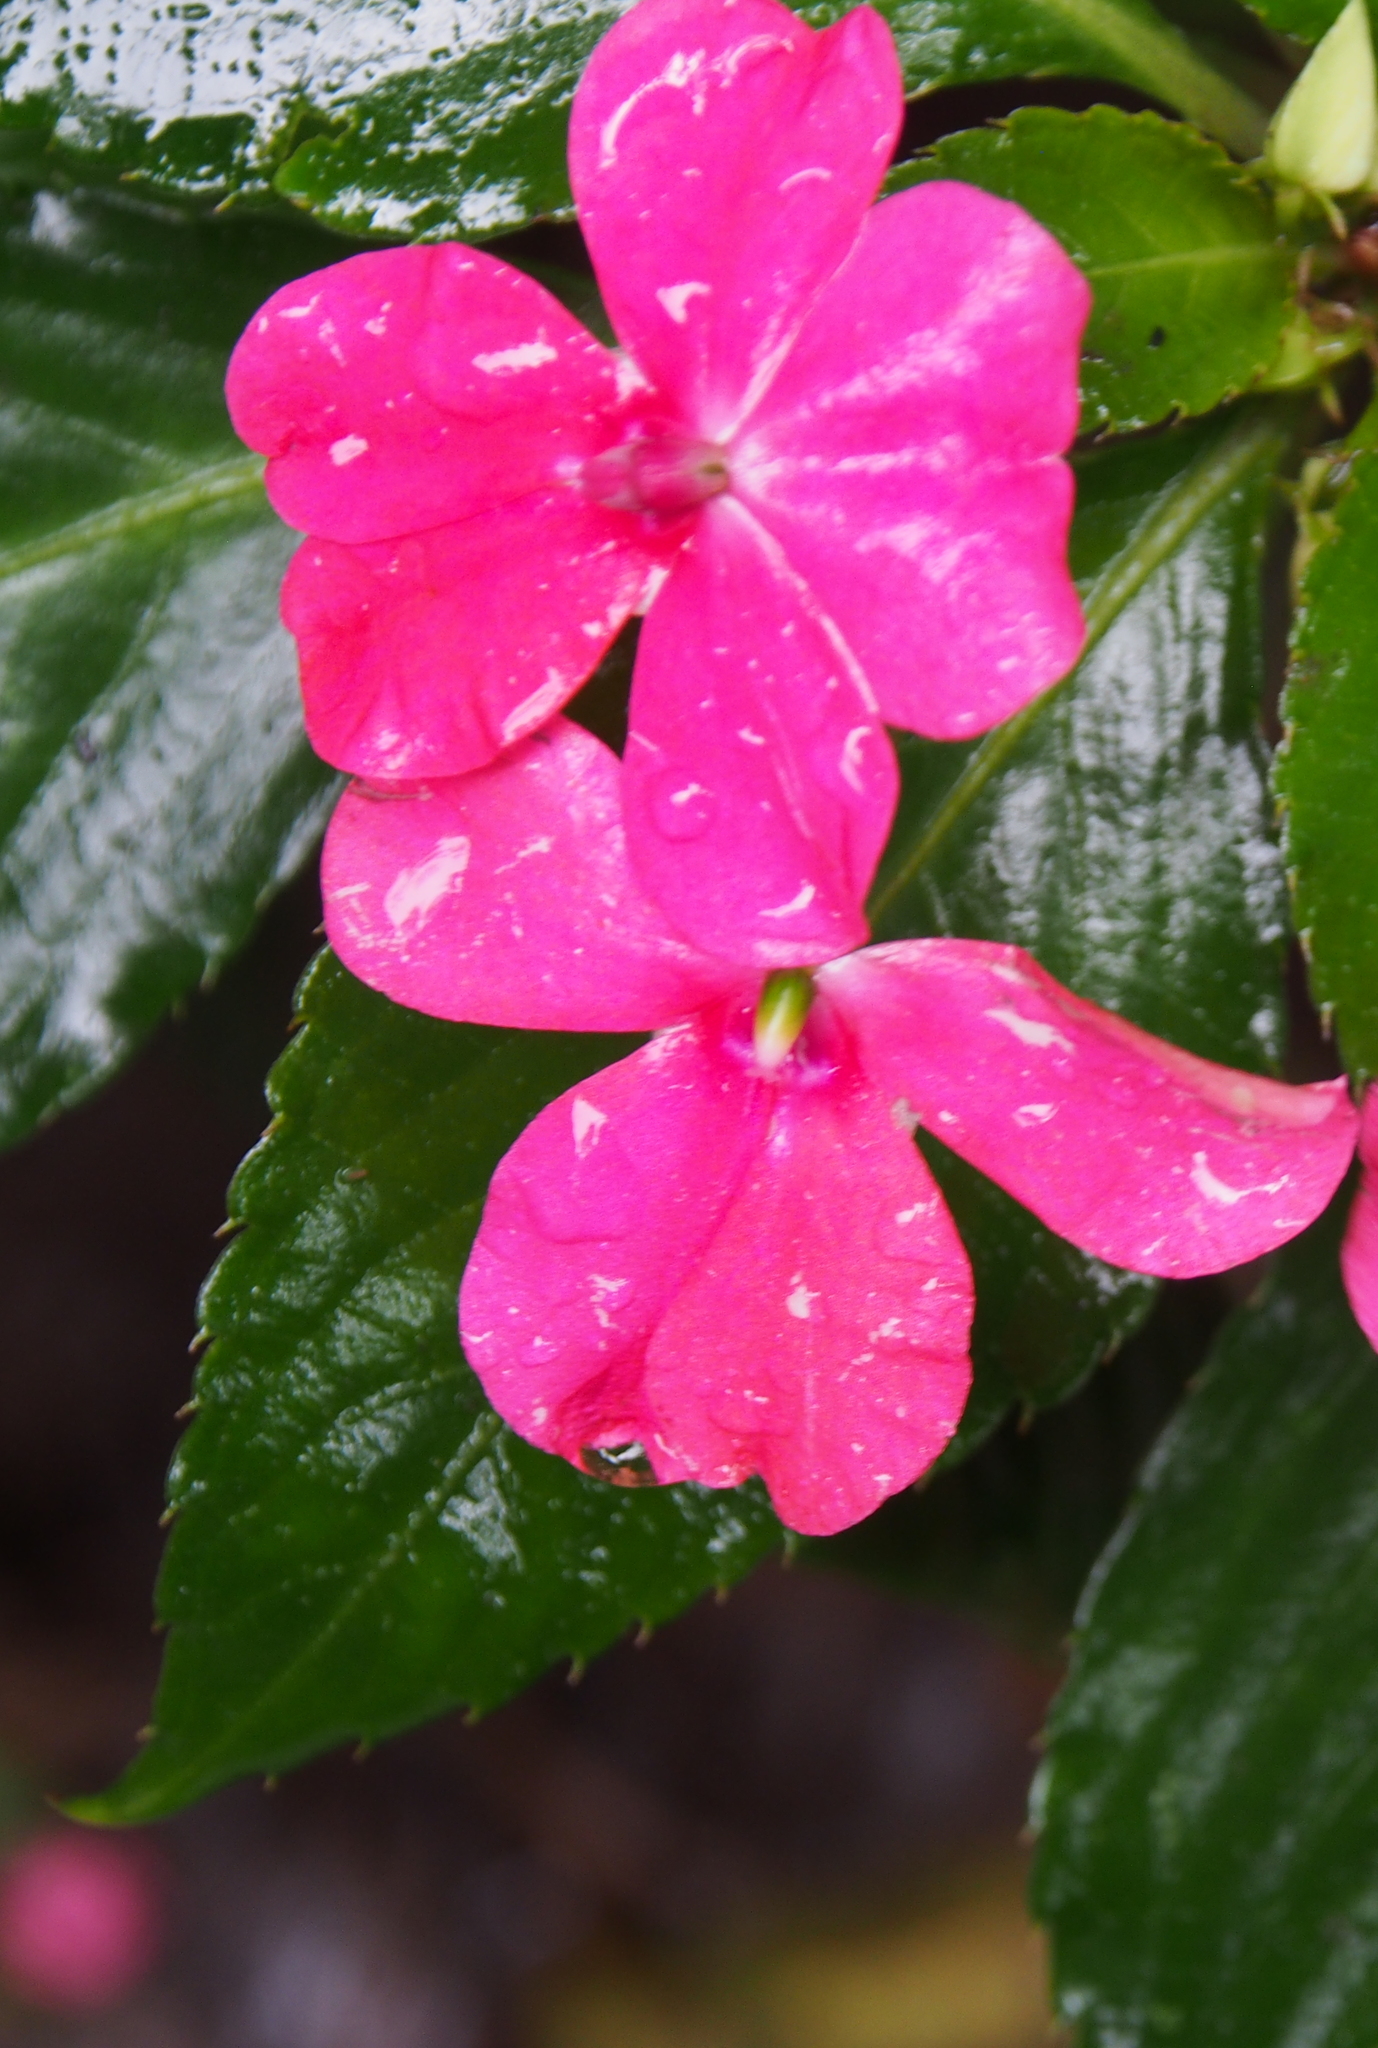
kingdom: Plantae
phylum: Tracheophyta
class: Magnoliopsida
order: Ericales
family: Balsaminaceae
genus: Impatiens
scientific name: Impatiens walleriana
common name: Buzzy lizzy
